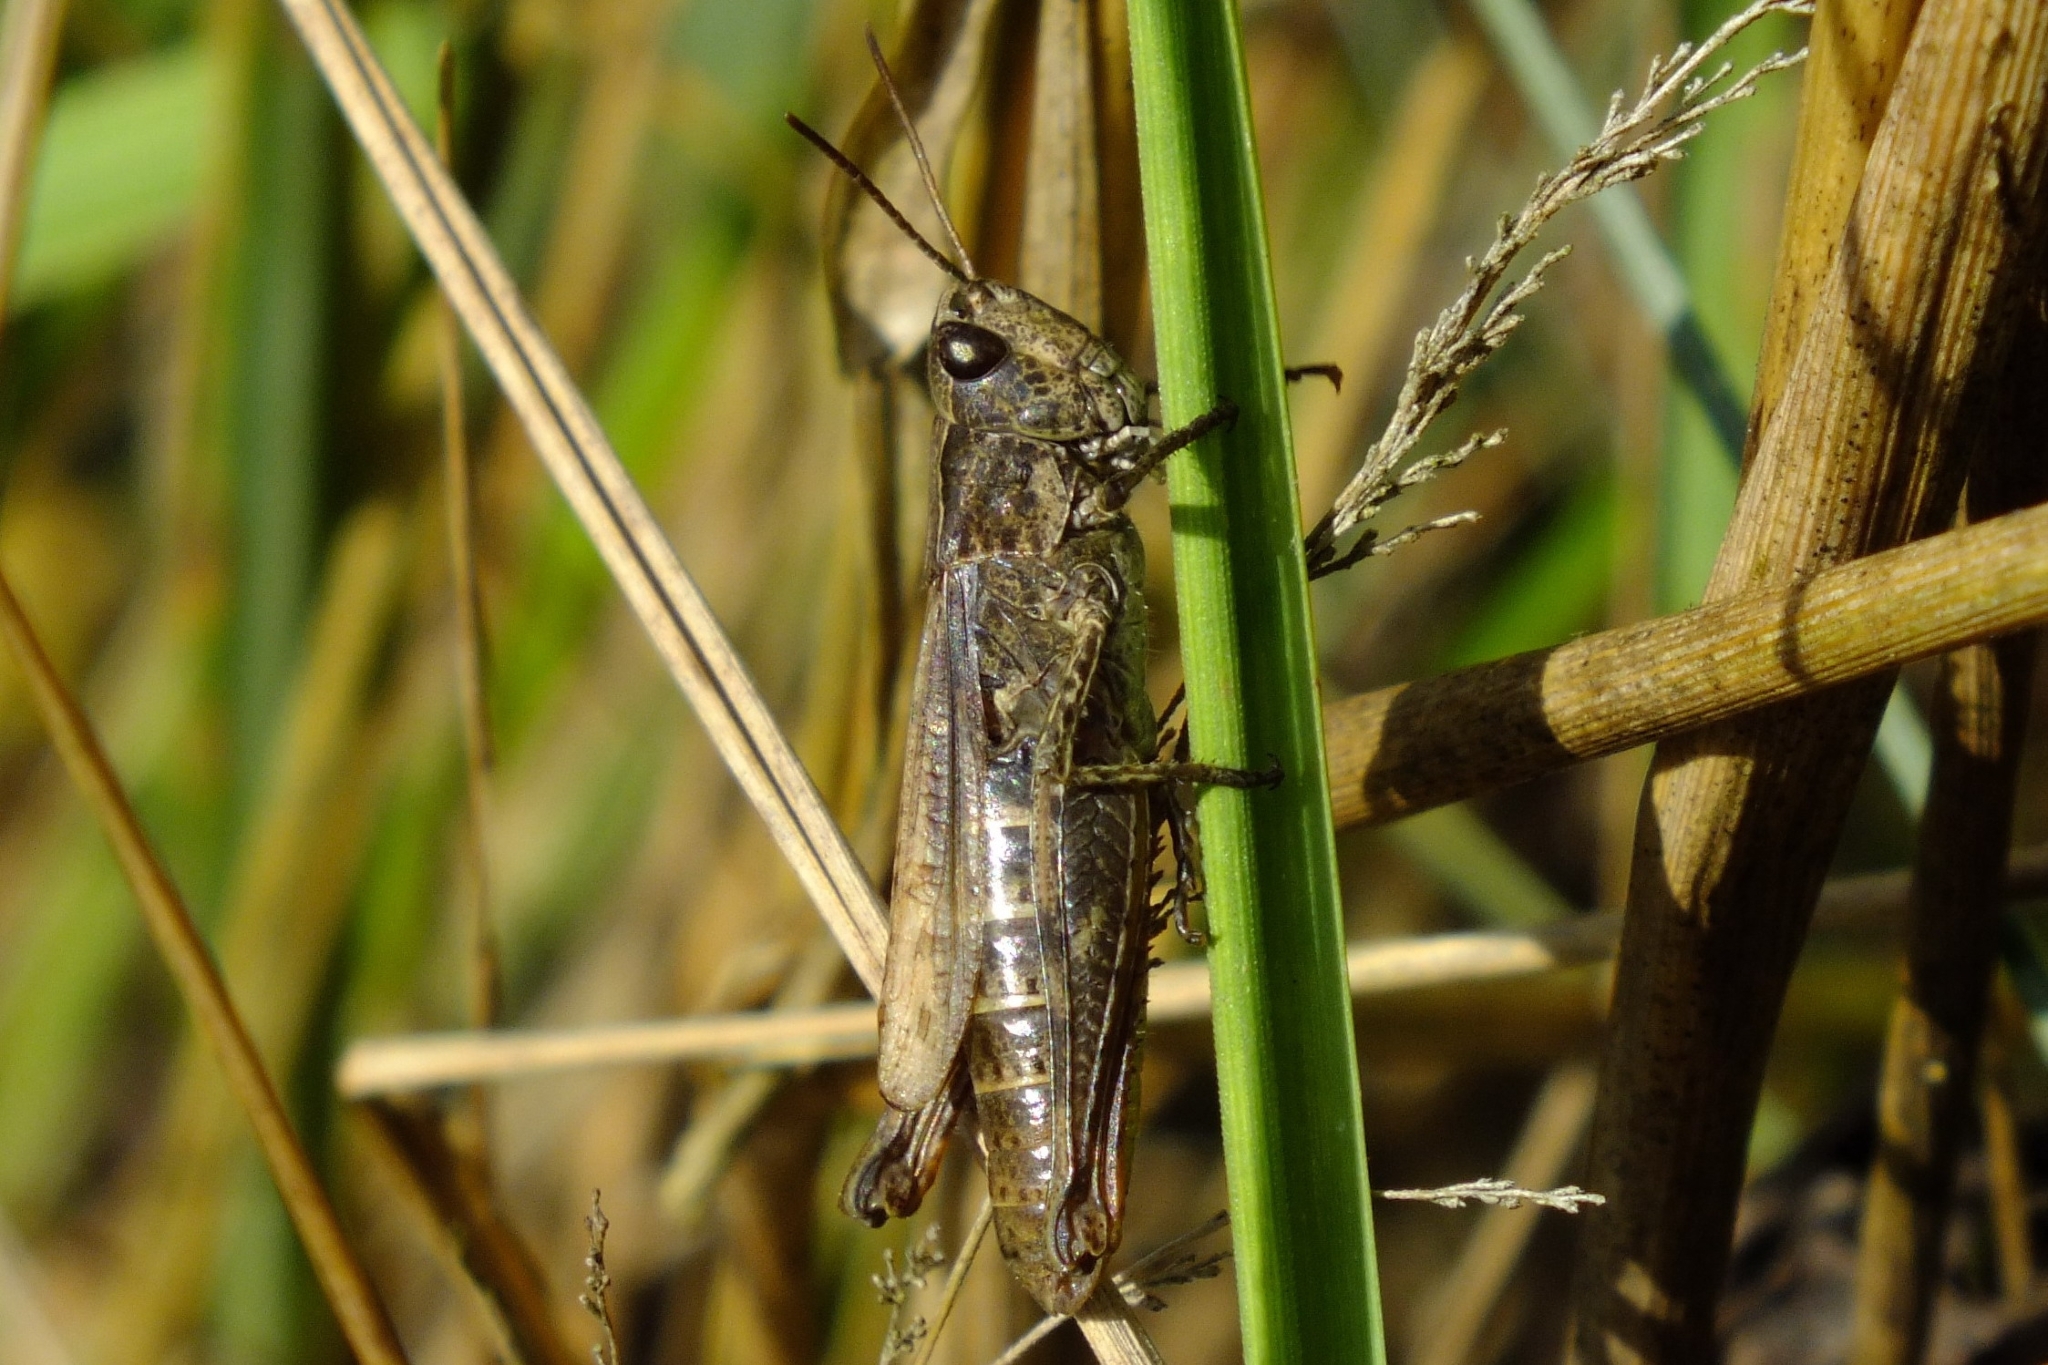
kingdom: Animalia
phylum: Arthropoda
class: Insecta
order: Orthoptera
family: Acrididae
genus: Chorthippus
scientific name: Chorthippus apricarius
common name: Upland field grasshopper
